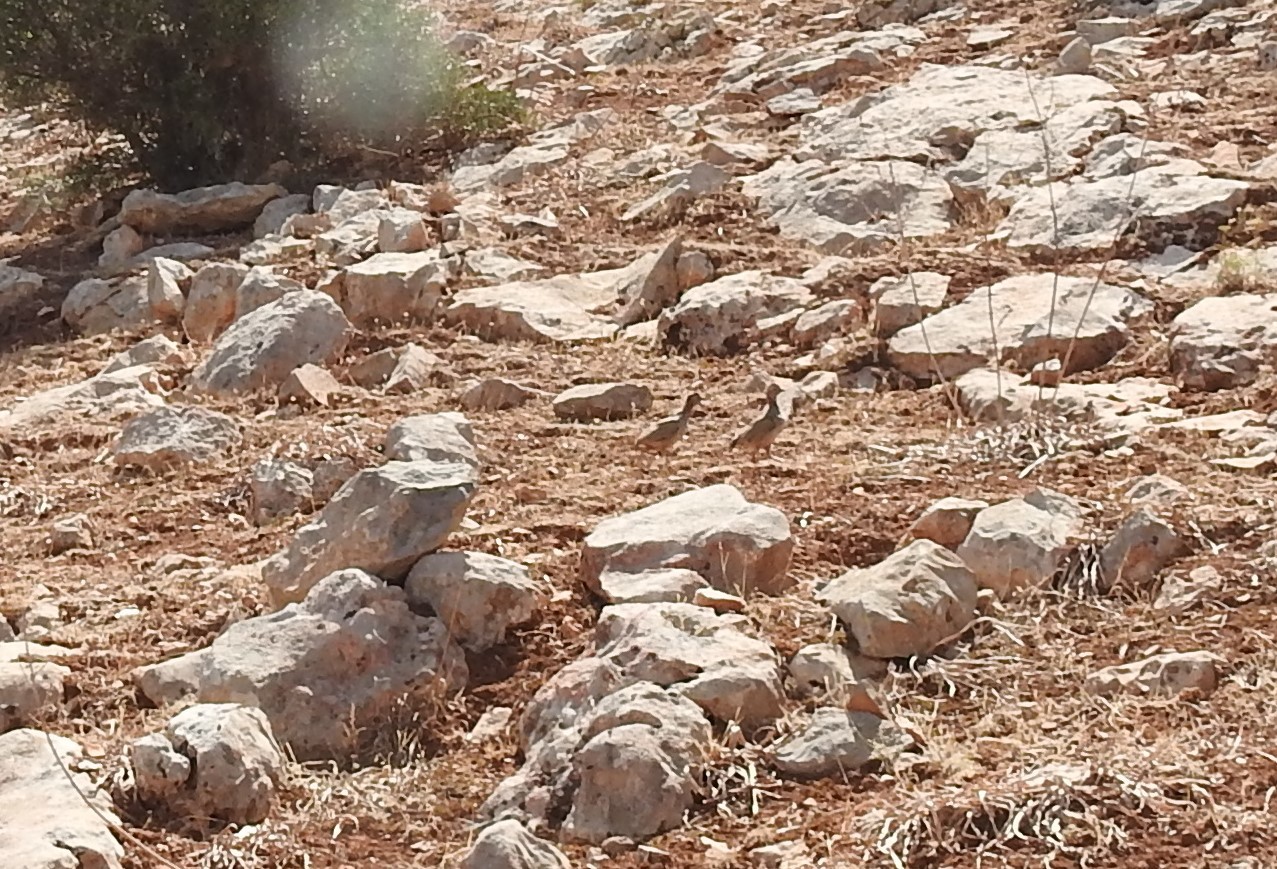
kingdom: Animalia
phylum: Chordata
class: Aves
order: Galliformes
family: Phasianidae
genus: Alectoris
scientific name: Alectoris barbara
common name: Barbary partridge
